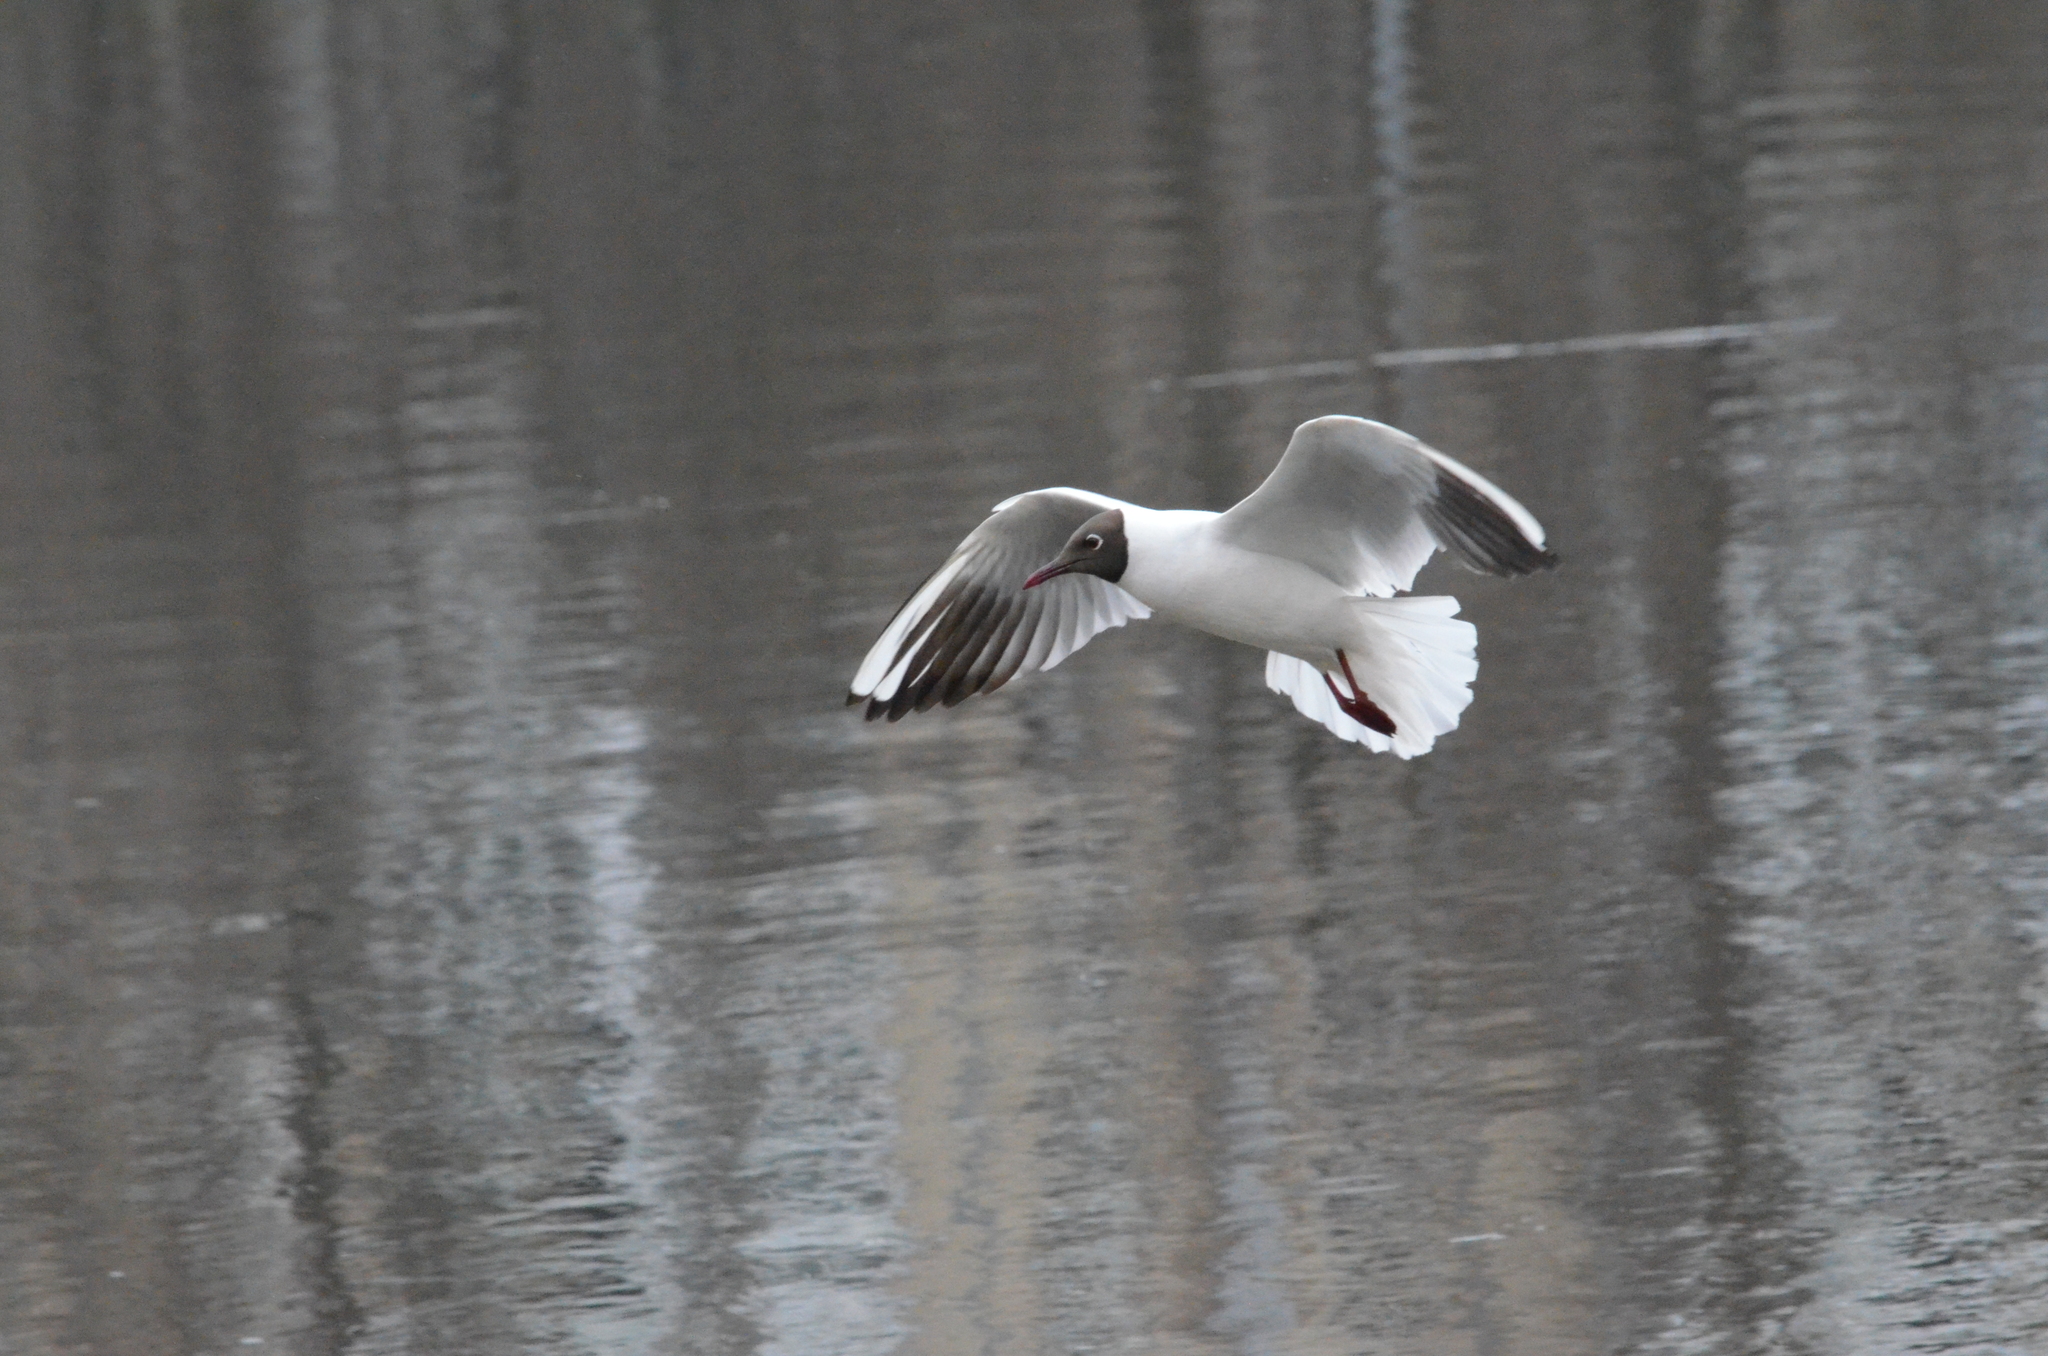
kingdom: Animalia
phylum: Chordata
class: Aves
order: Charadriiformes
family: Laridae
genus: Chroicocephalus
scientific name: Chroicocephalus ridibundus
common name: Black-headed gull
